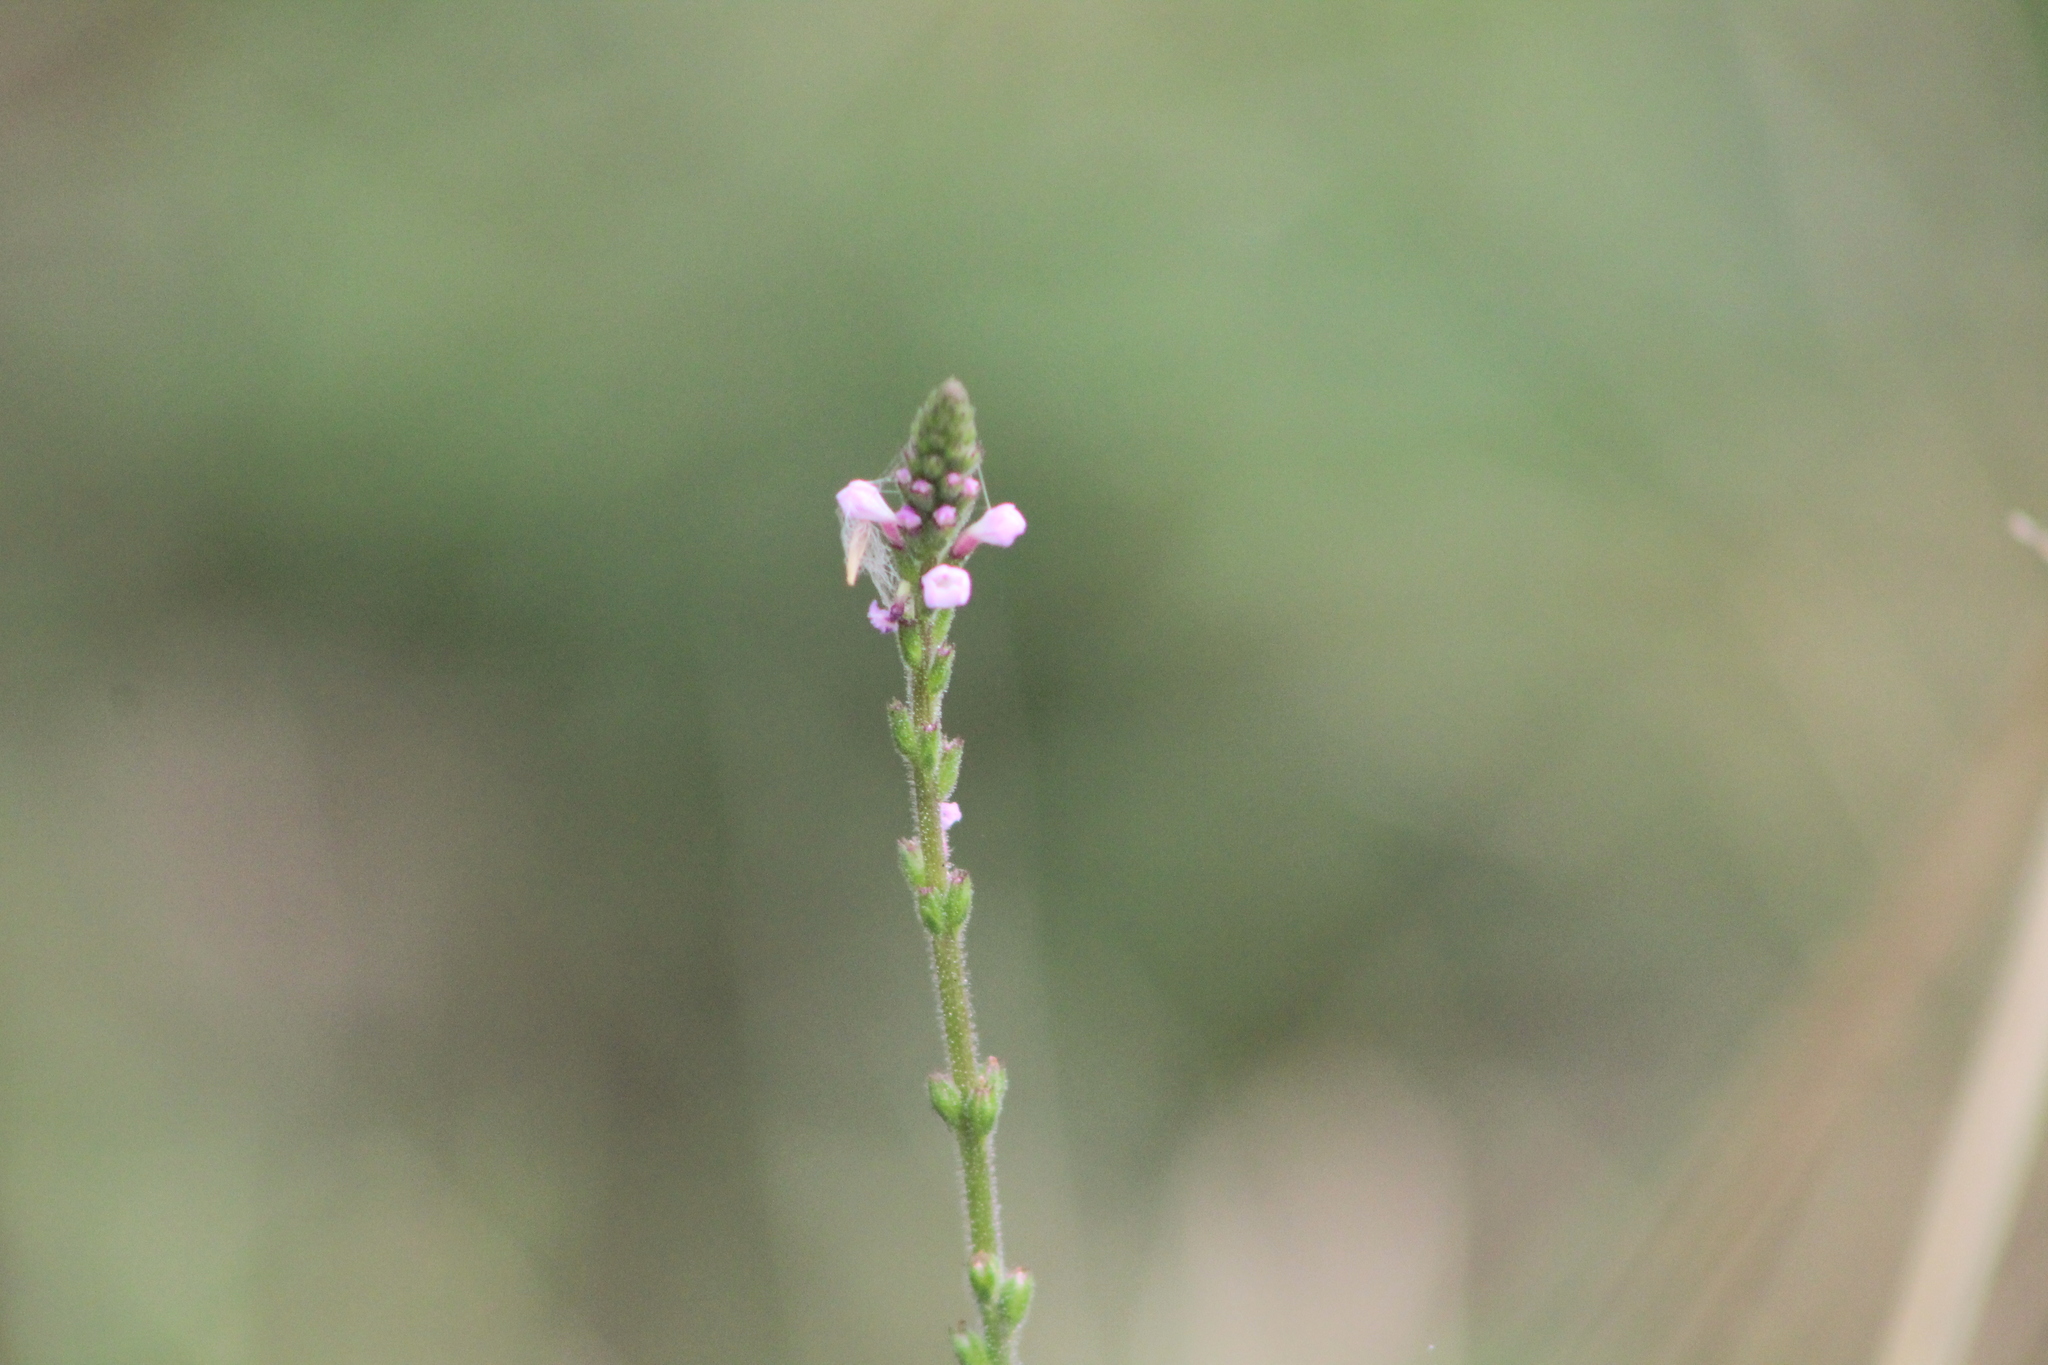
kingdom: Plantae
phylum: Tracheophyta
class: Magnoliopsida
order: Lamiales
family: Verbenaceae
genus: Verbena
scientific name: Verbena officinalis
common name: Vervain
